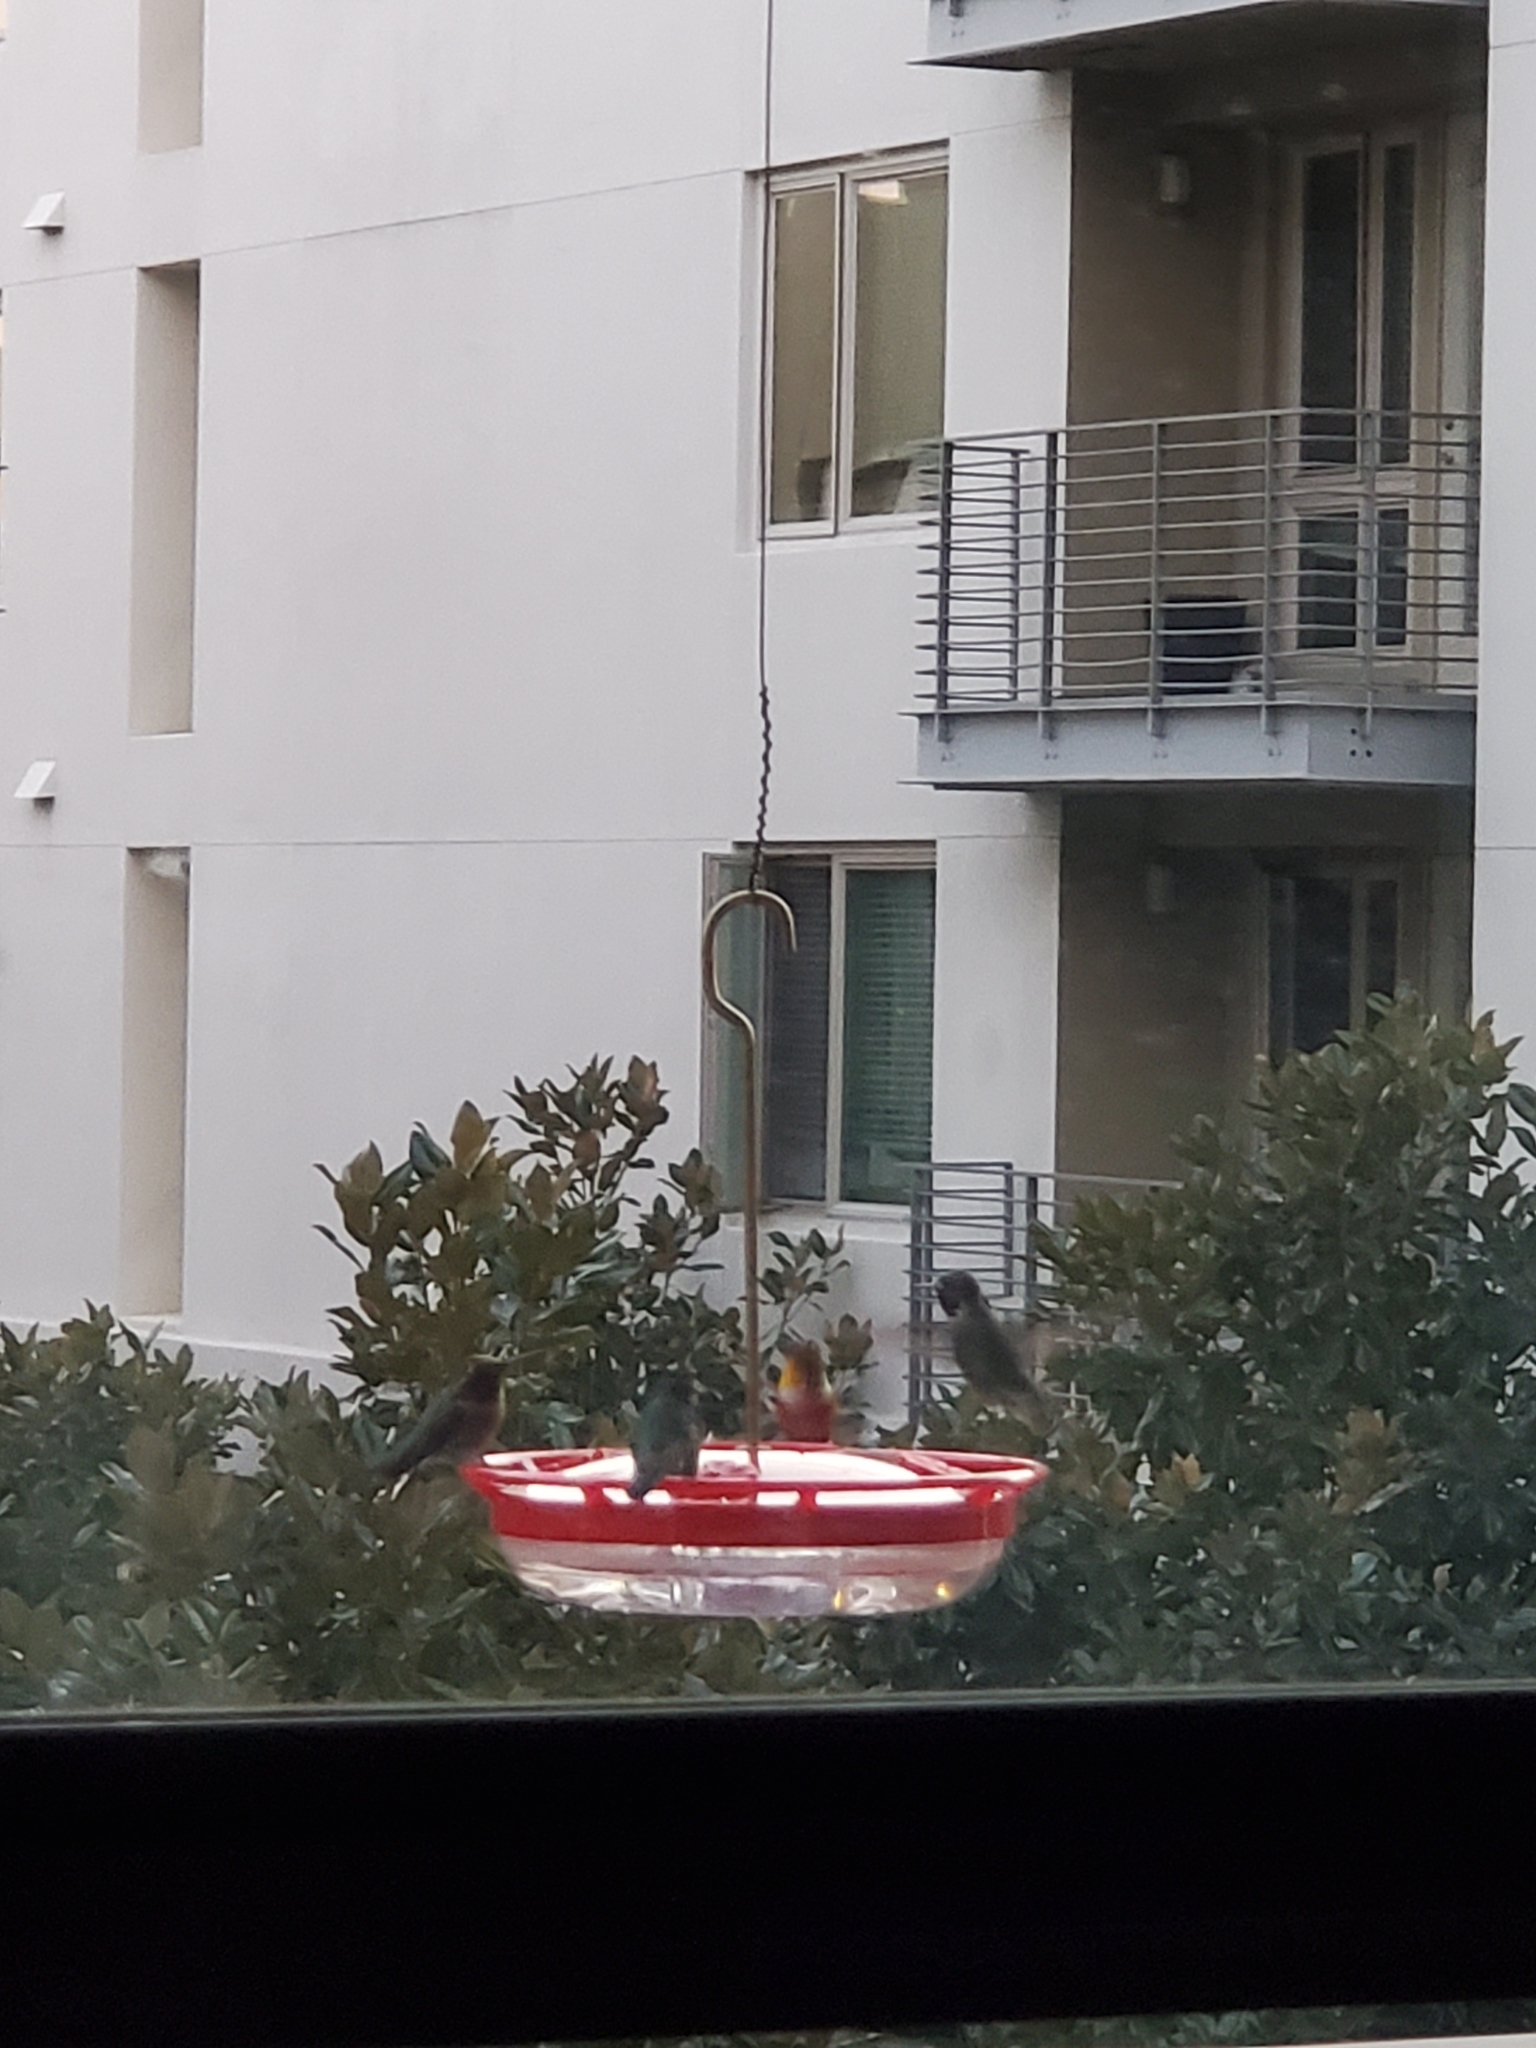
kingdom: Animalia
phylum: Chordata
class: Aves
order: Apodiformes
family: Trochilidae
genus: Selasphorus
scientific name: Selasphorus sasin
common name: Allen's hummingbird
